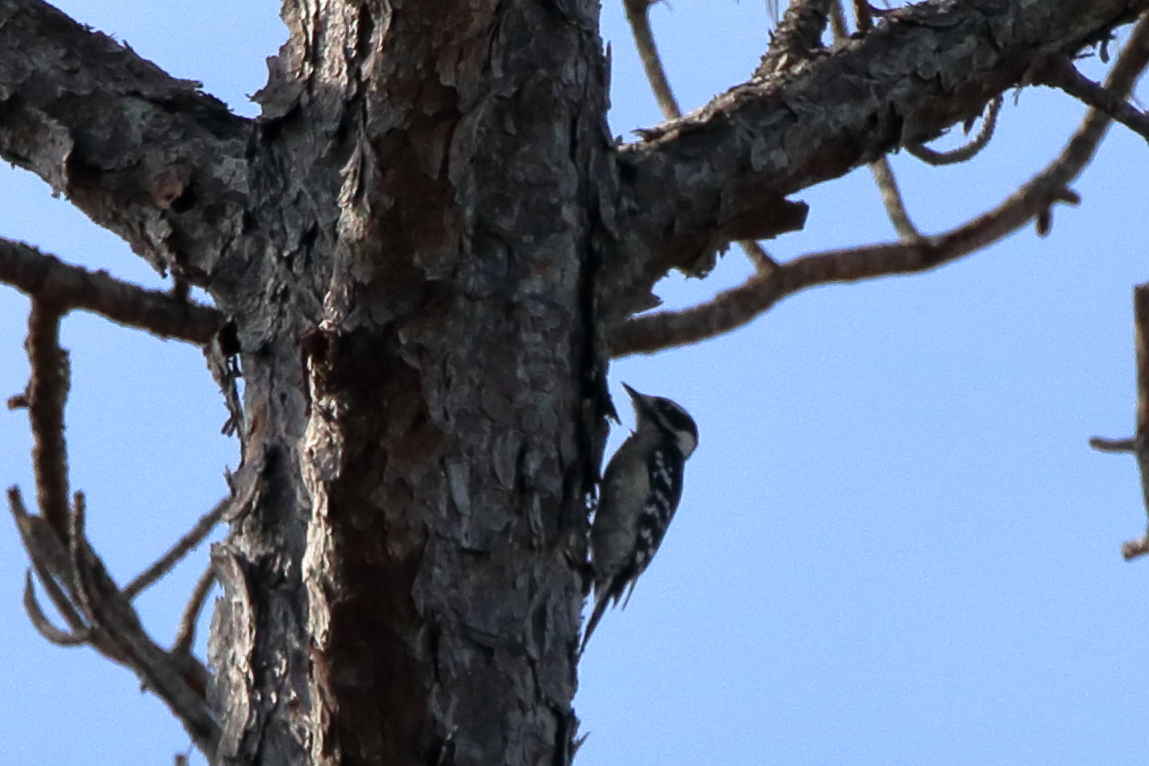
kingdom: Animalia
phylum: Chordata
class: Aves
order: Piciformes
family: Picidae
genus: Dryobates
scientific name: Dryobates pubescens
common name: Downy woodpecker
